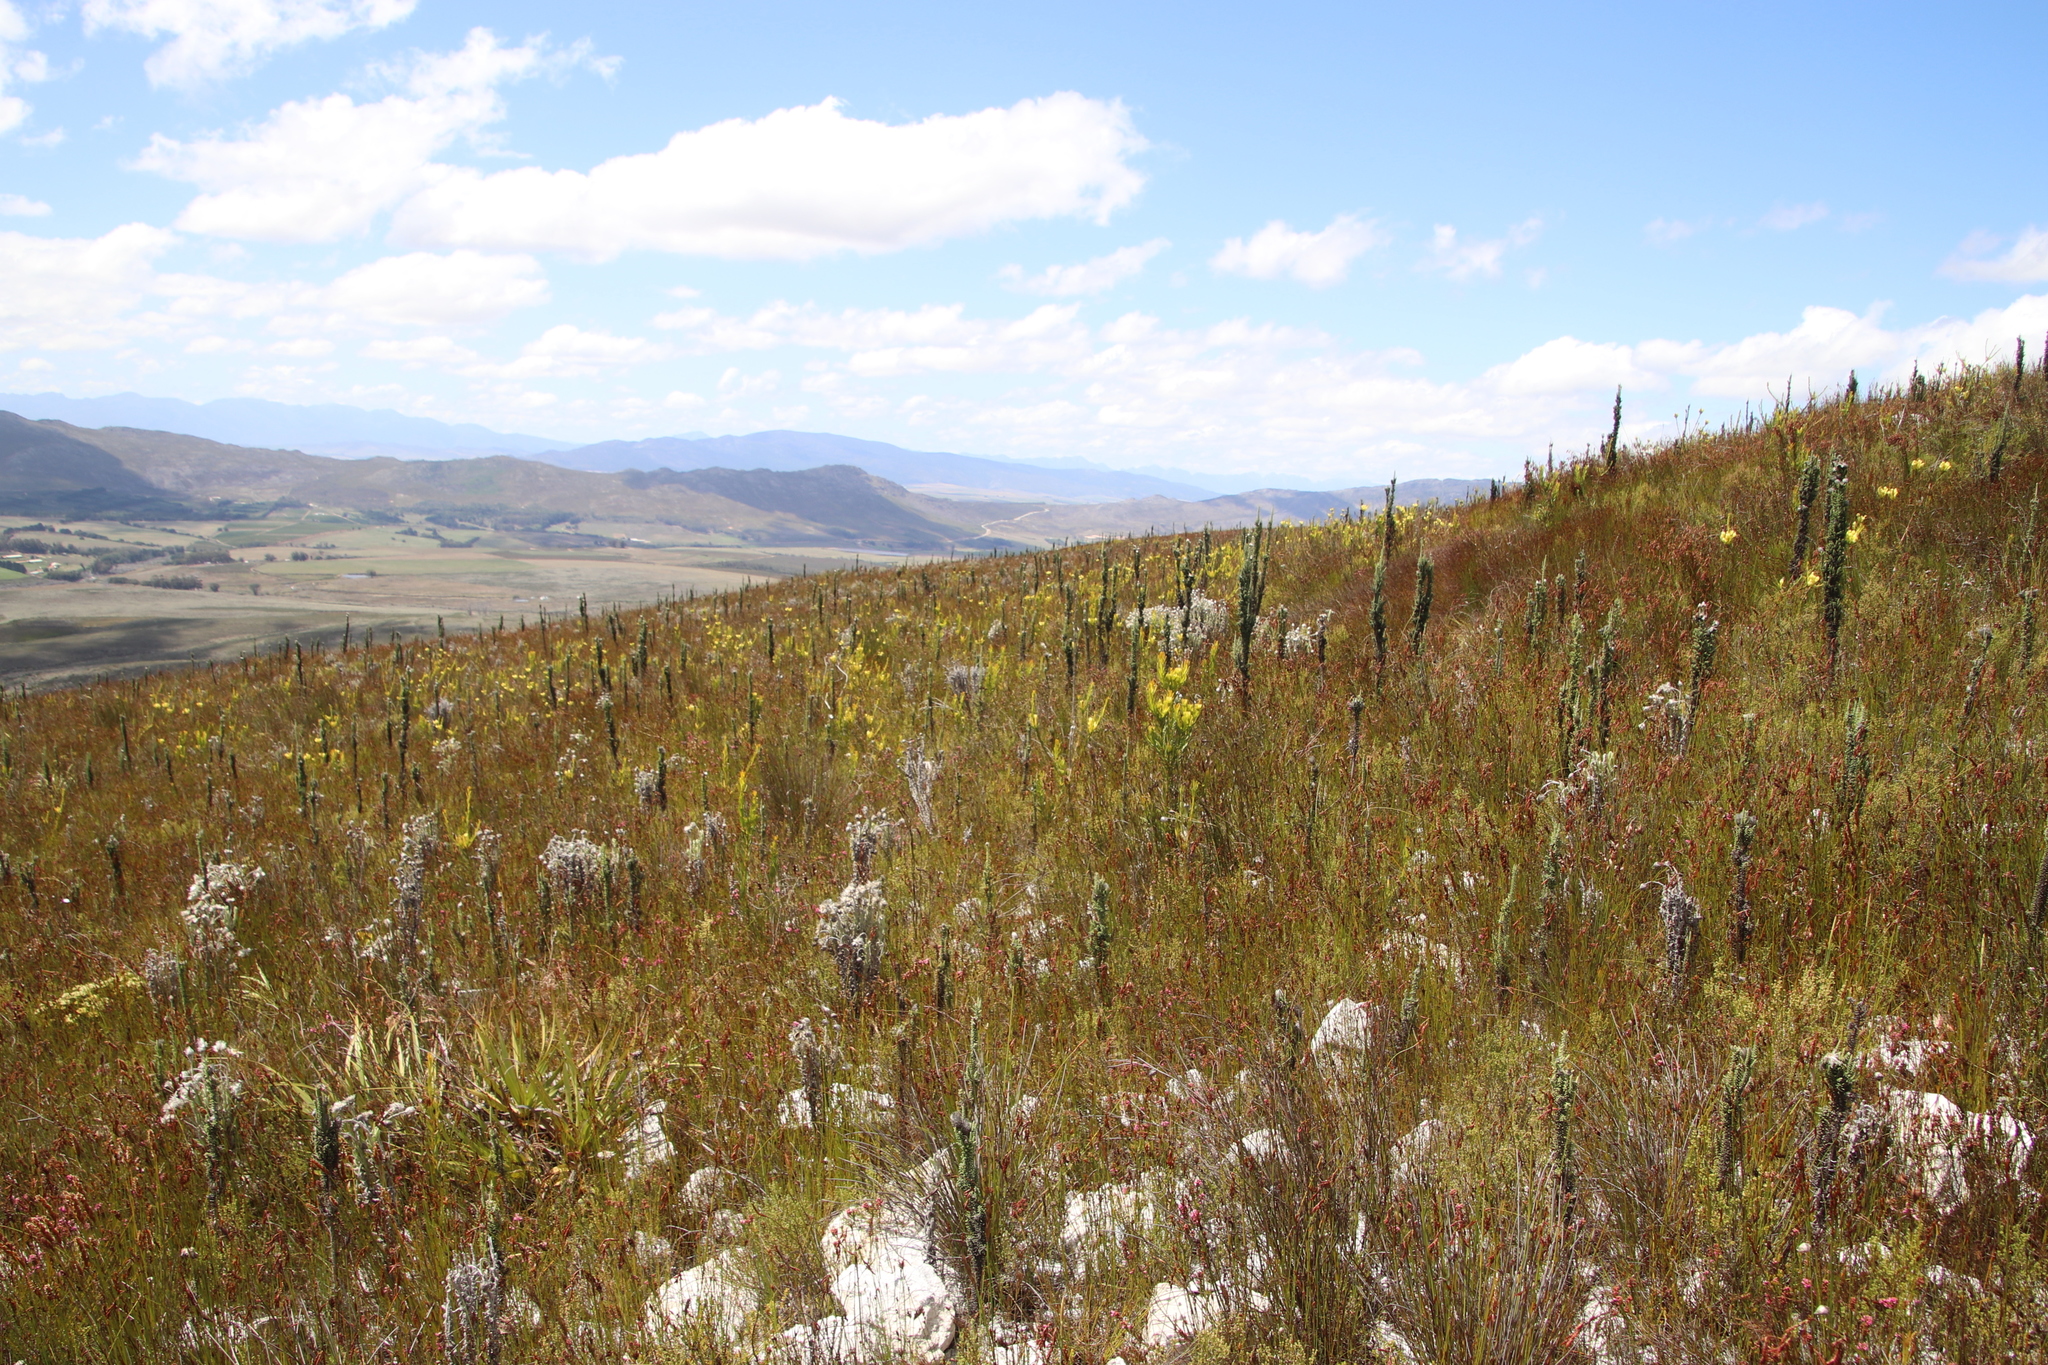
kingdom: Plantae
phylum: Tracheophyta
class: Magnoliopsida
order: Asterales
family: Asteraceae
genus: Phaenocoma
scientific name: Phaenocoma prolifera
